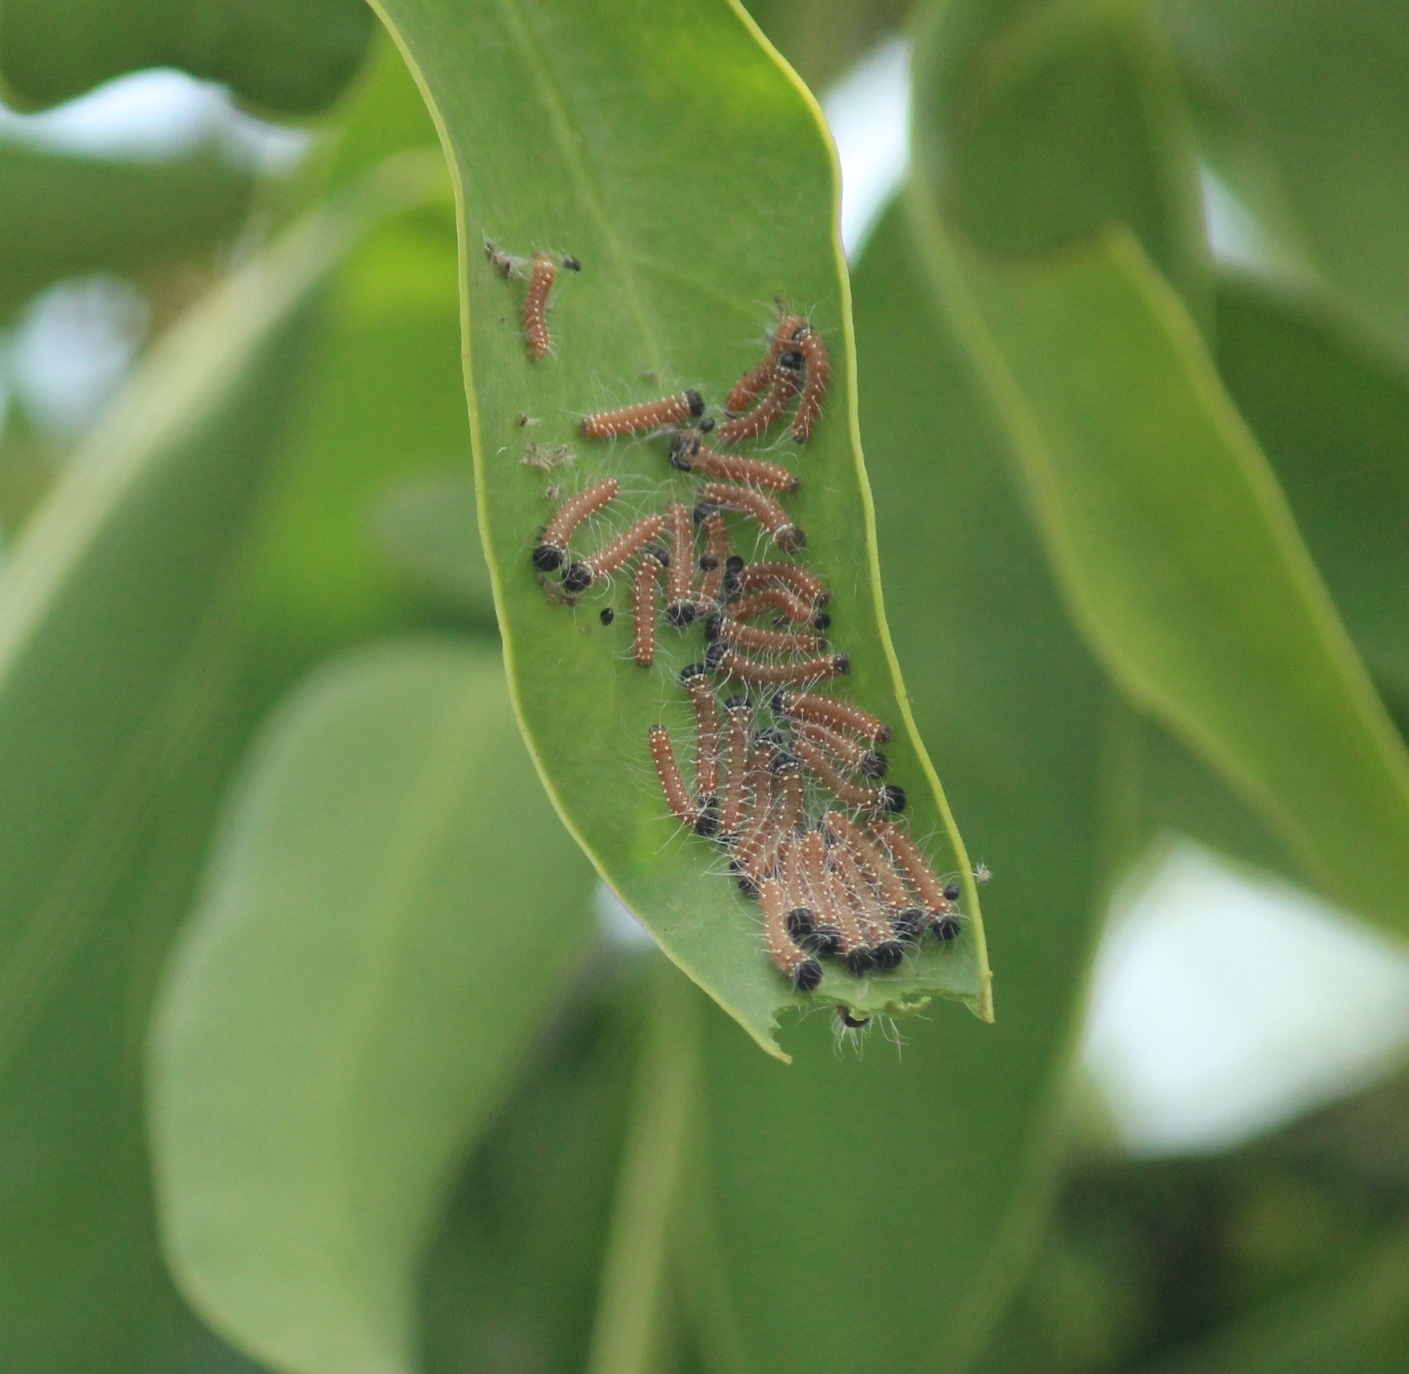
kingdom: Animalia
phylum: Arthropoda
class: Insecta
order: Lepidoptera
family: Pieridae
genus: Delias
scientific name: Delias eucharis
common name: Common jezebel
